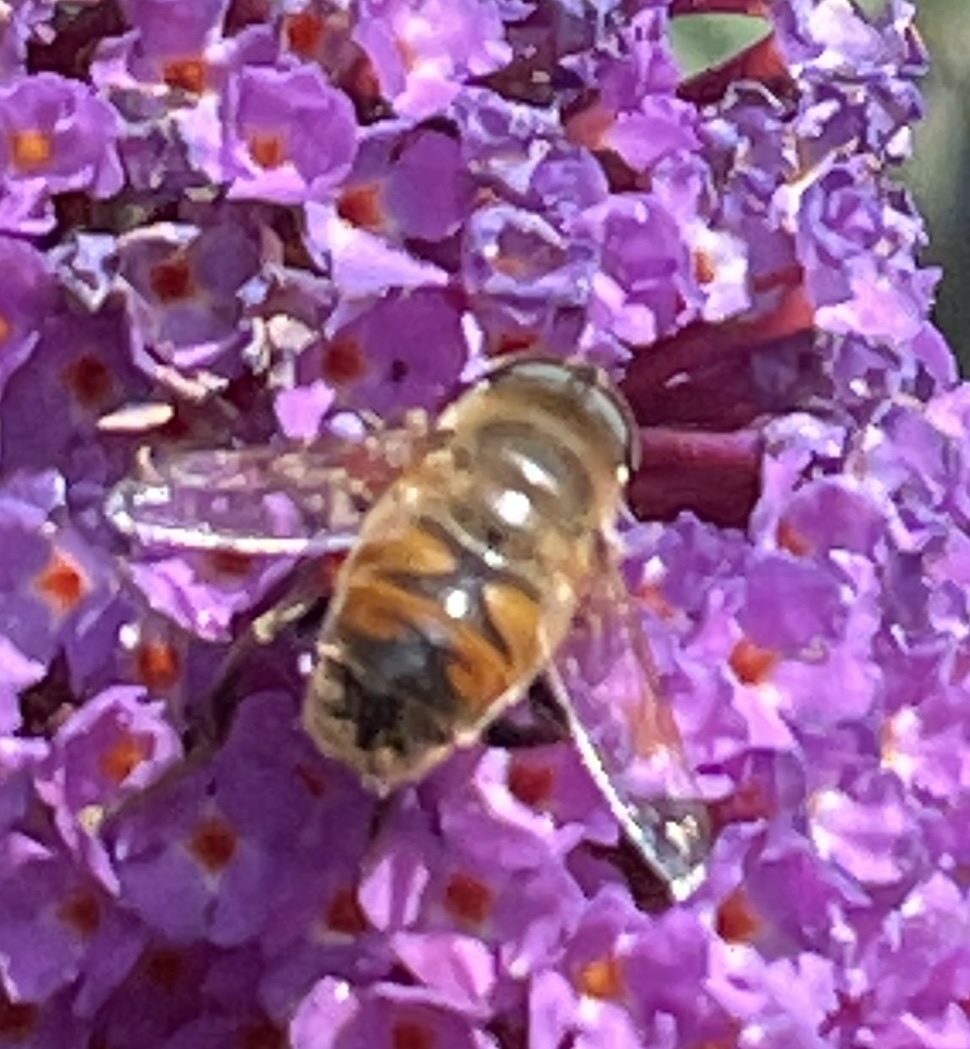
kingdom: Animalia
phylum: Arthropoda
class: Insecta
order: Diptera
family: Syrphidae
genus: Eristalis
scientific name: Eristalis tenax
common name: Drone fly
